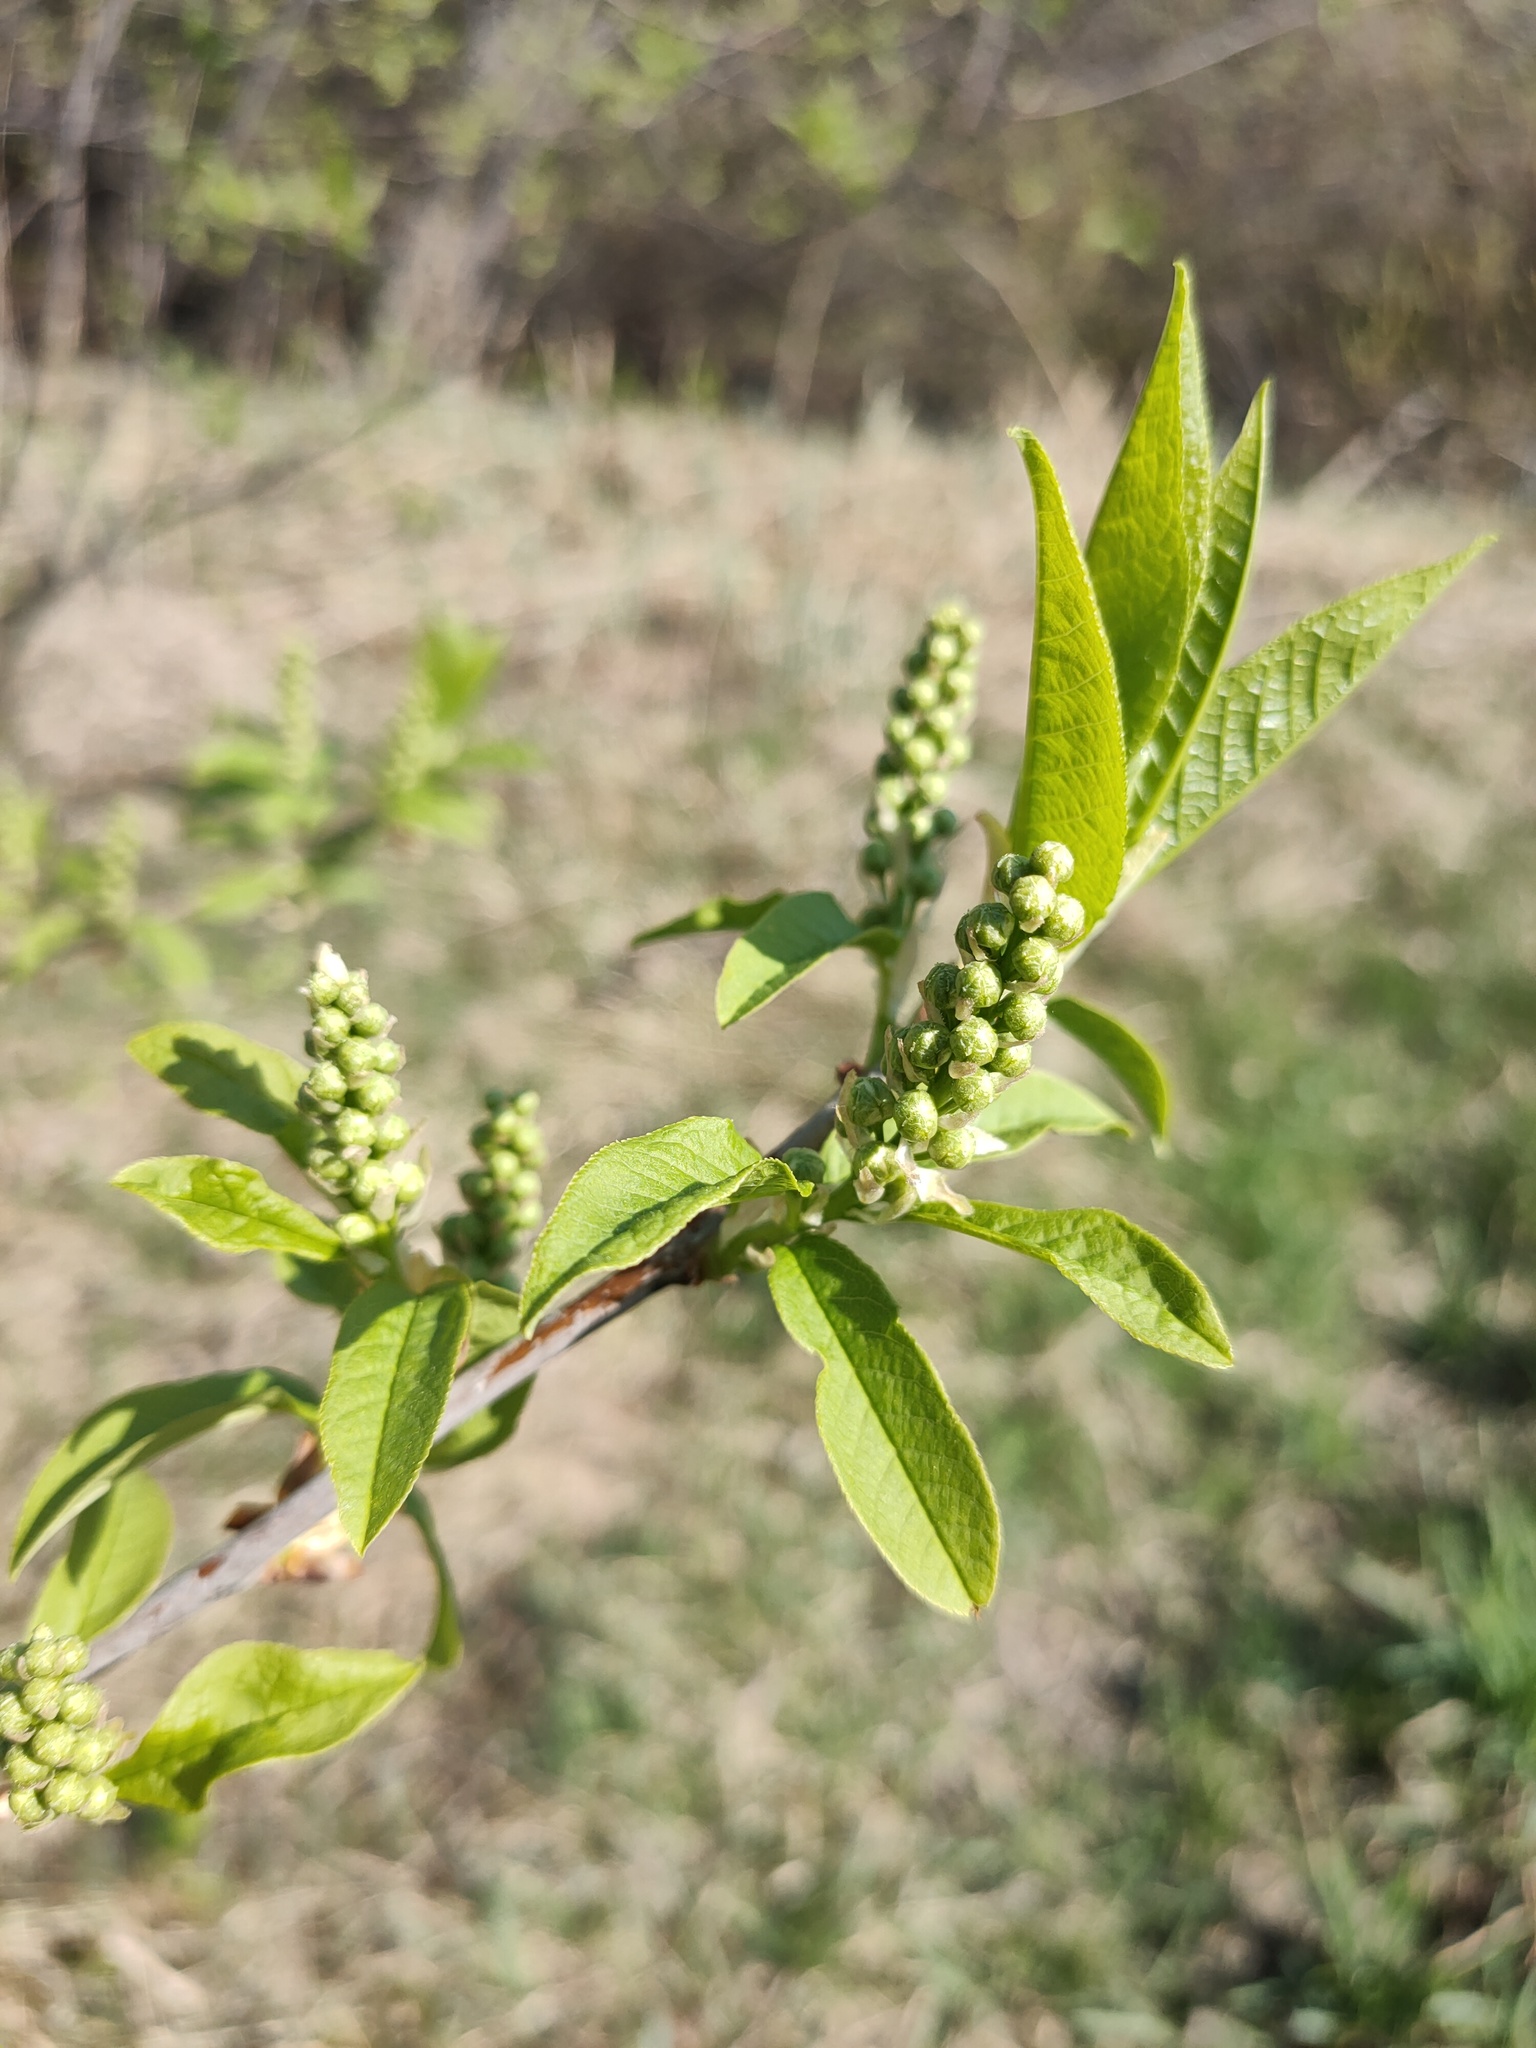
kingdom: Plantae
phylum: Tracheophyta
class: Magnoliopsida
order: Rosales
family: Rosaceae
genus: Prunus
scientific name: Prunus padus
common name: Bird cherry
